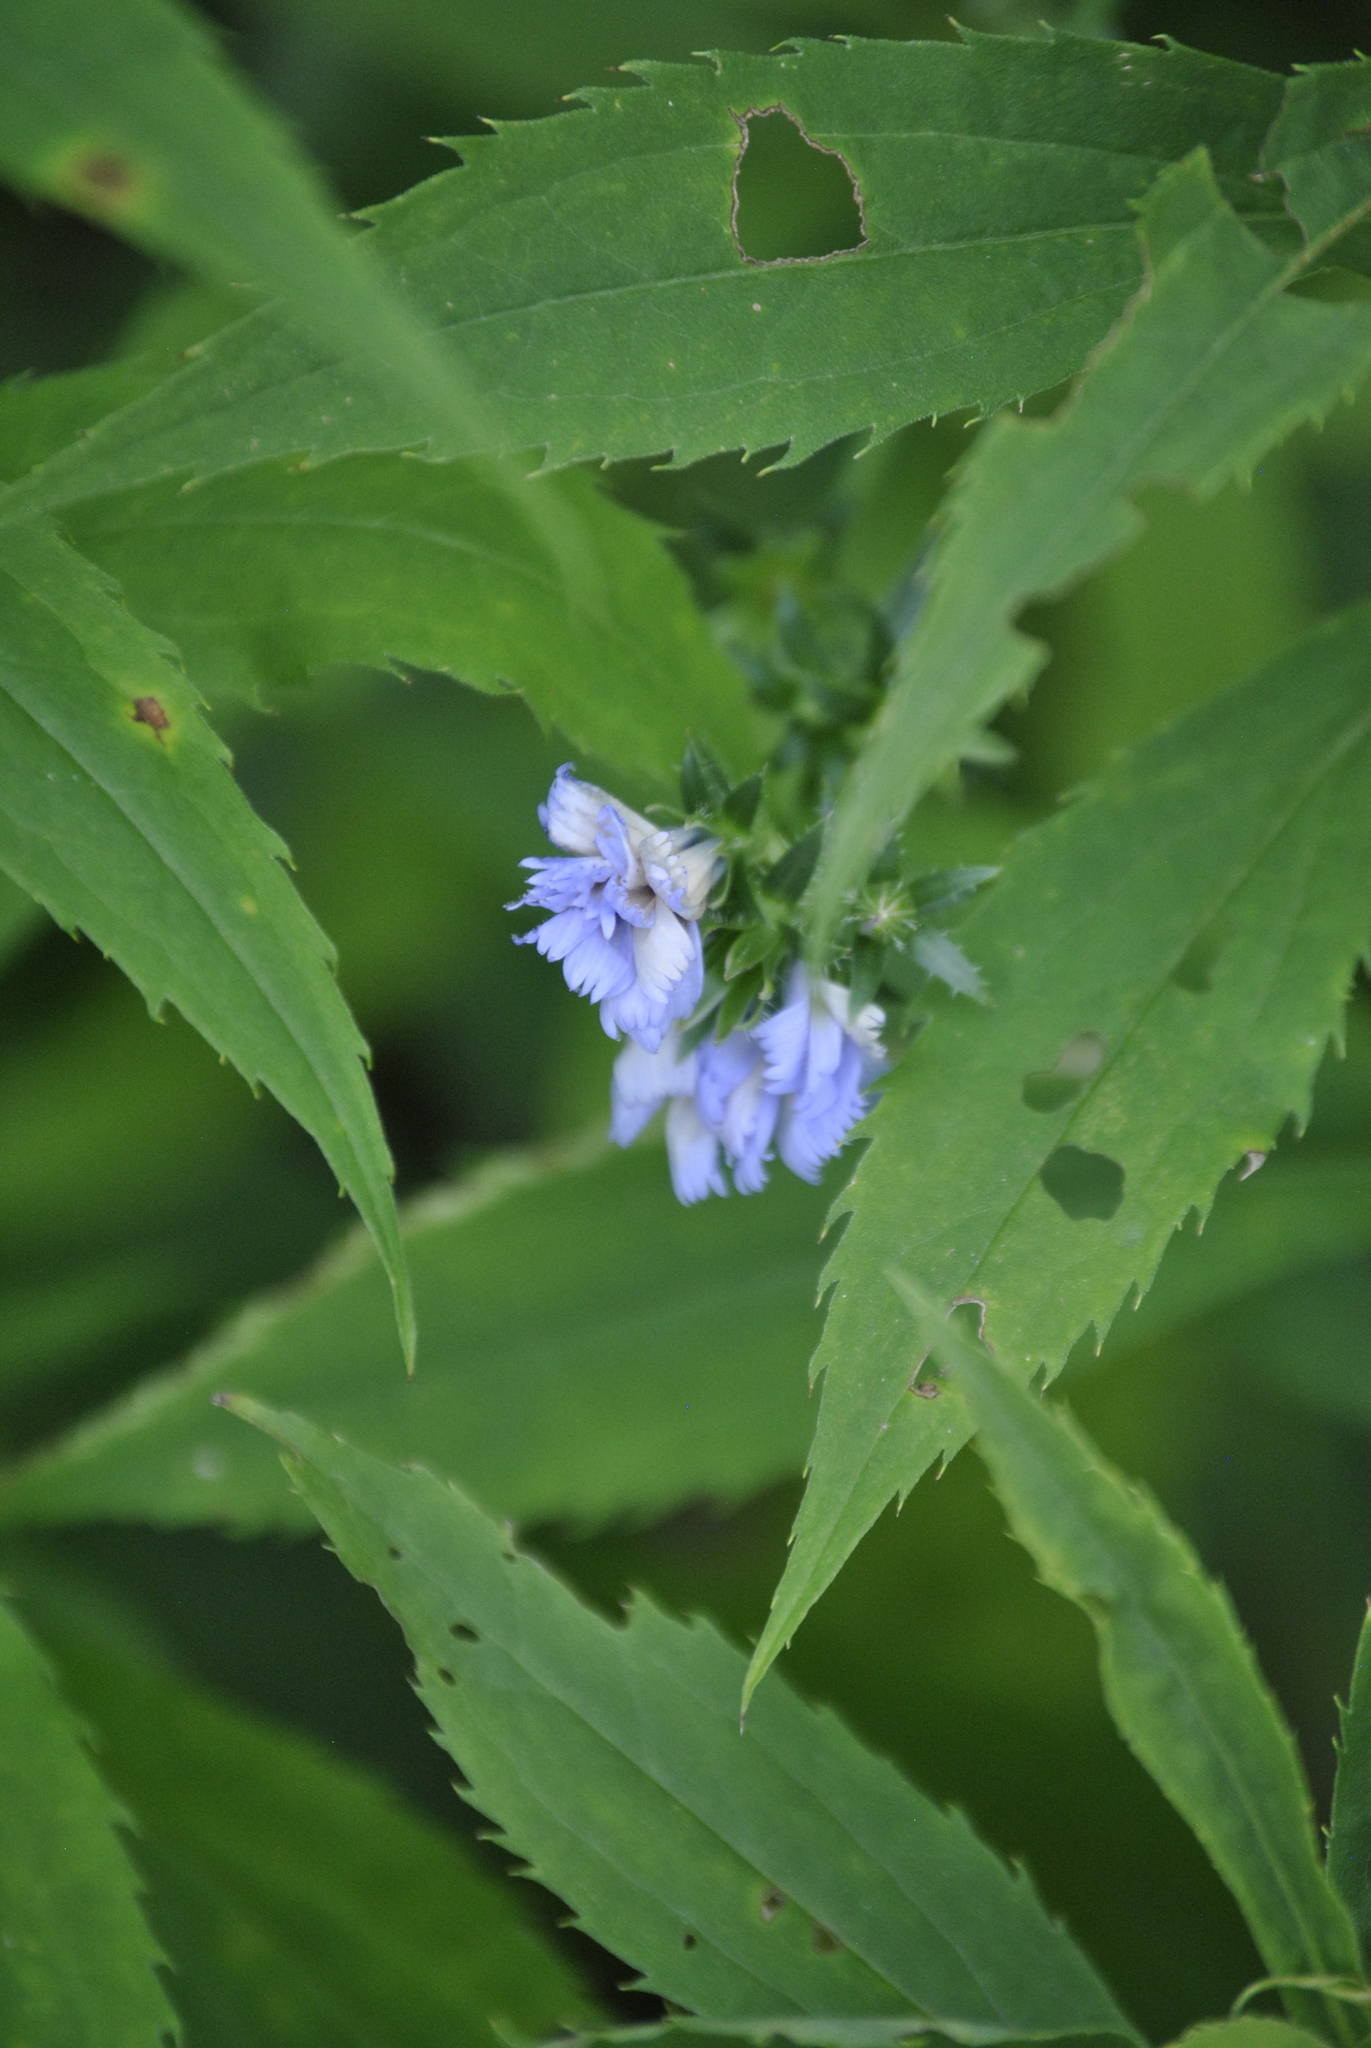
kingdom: Plantae
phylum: Tracheophyta
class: Magnoliopsida
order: Asterales
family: Asteraceae
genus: Cichorium
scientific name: Cichorium intybus
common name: Chicory
